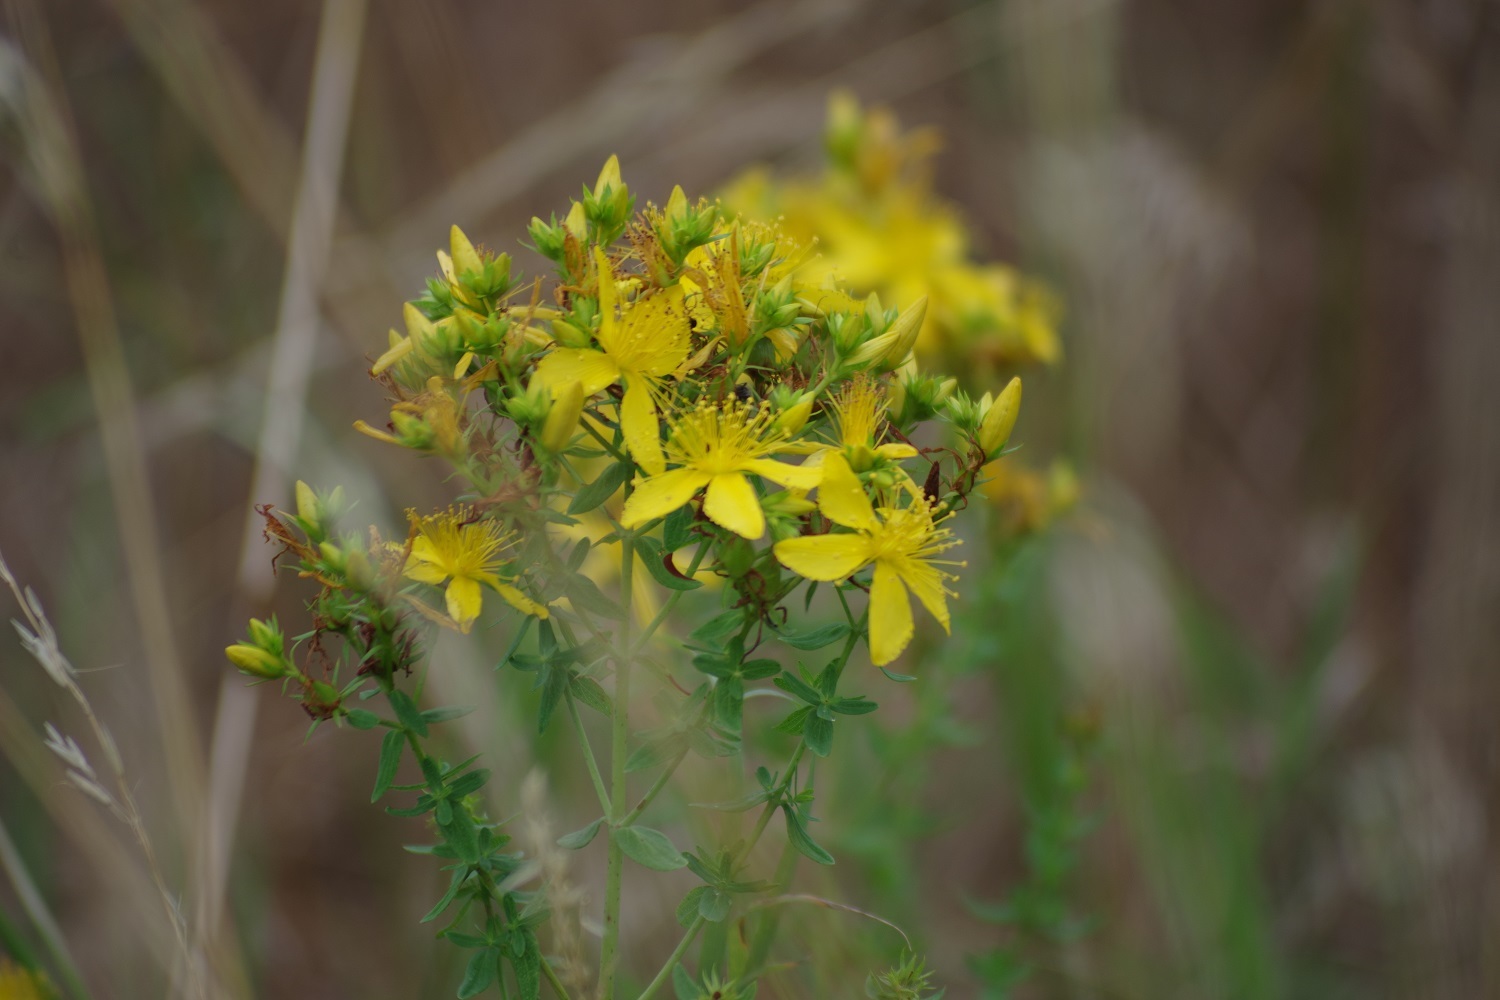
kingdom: Plantae
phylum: Tracheophyta
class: Magnoliopsida
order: Malpighiales
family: Hypericaceae
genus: Hypericum
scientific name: Hypericum perforatum
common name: Common st. johnswort
